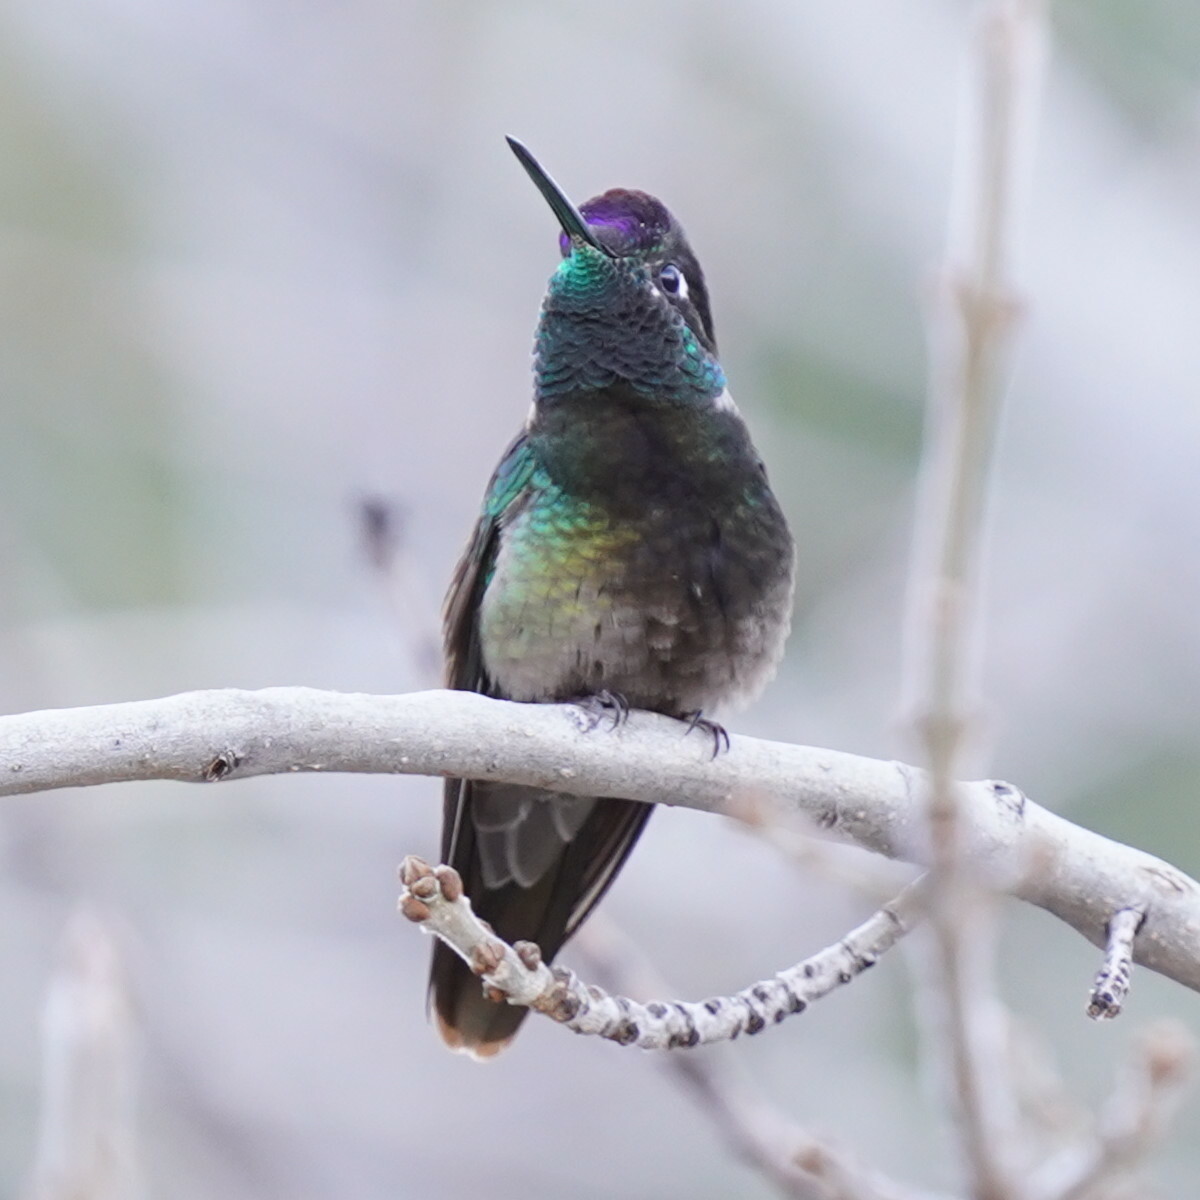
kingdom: Animalia
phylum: Chordata
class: Aves
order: Apodiformes
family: Trochilidae
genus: Eugenes
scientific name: Eugenes fulgens
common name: Magnificent hummingbird
